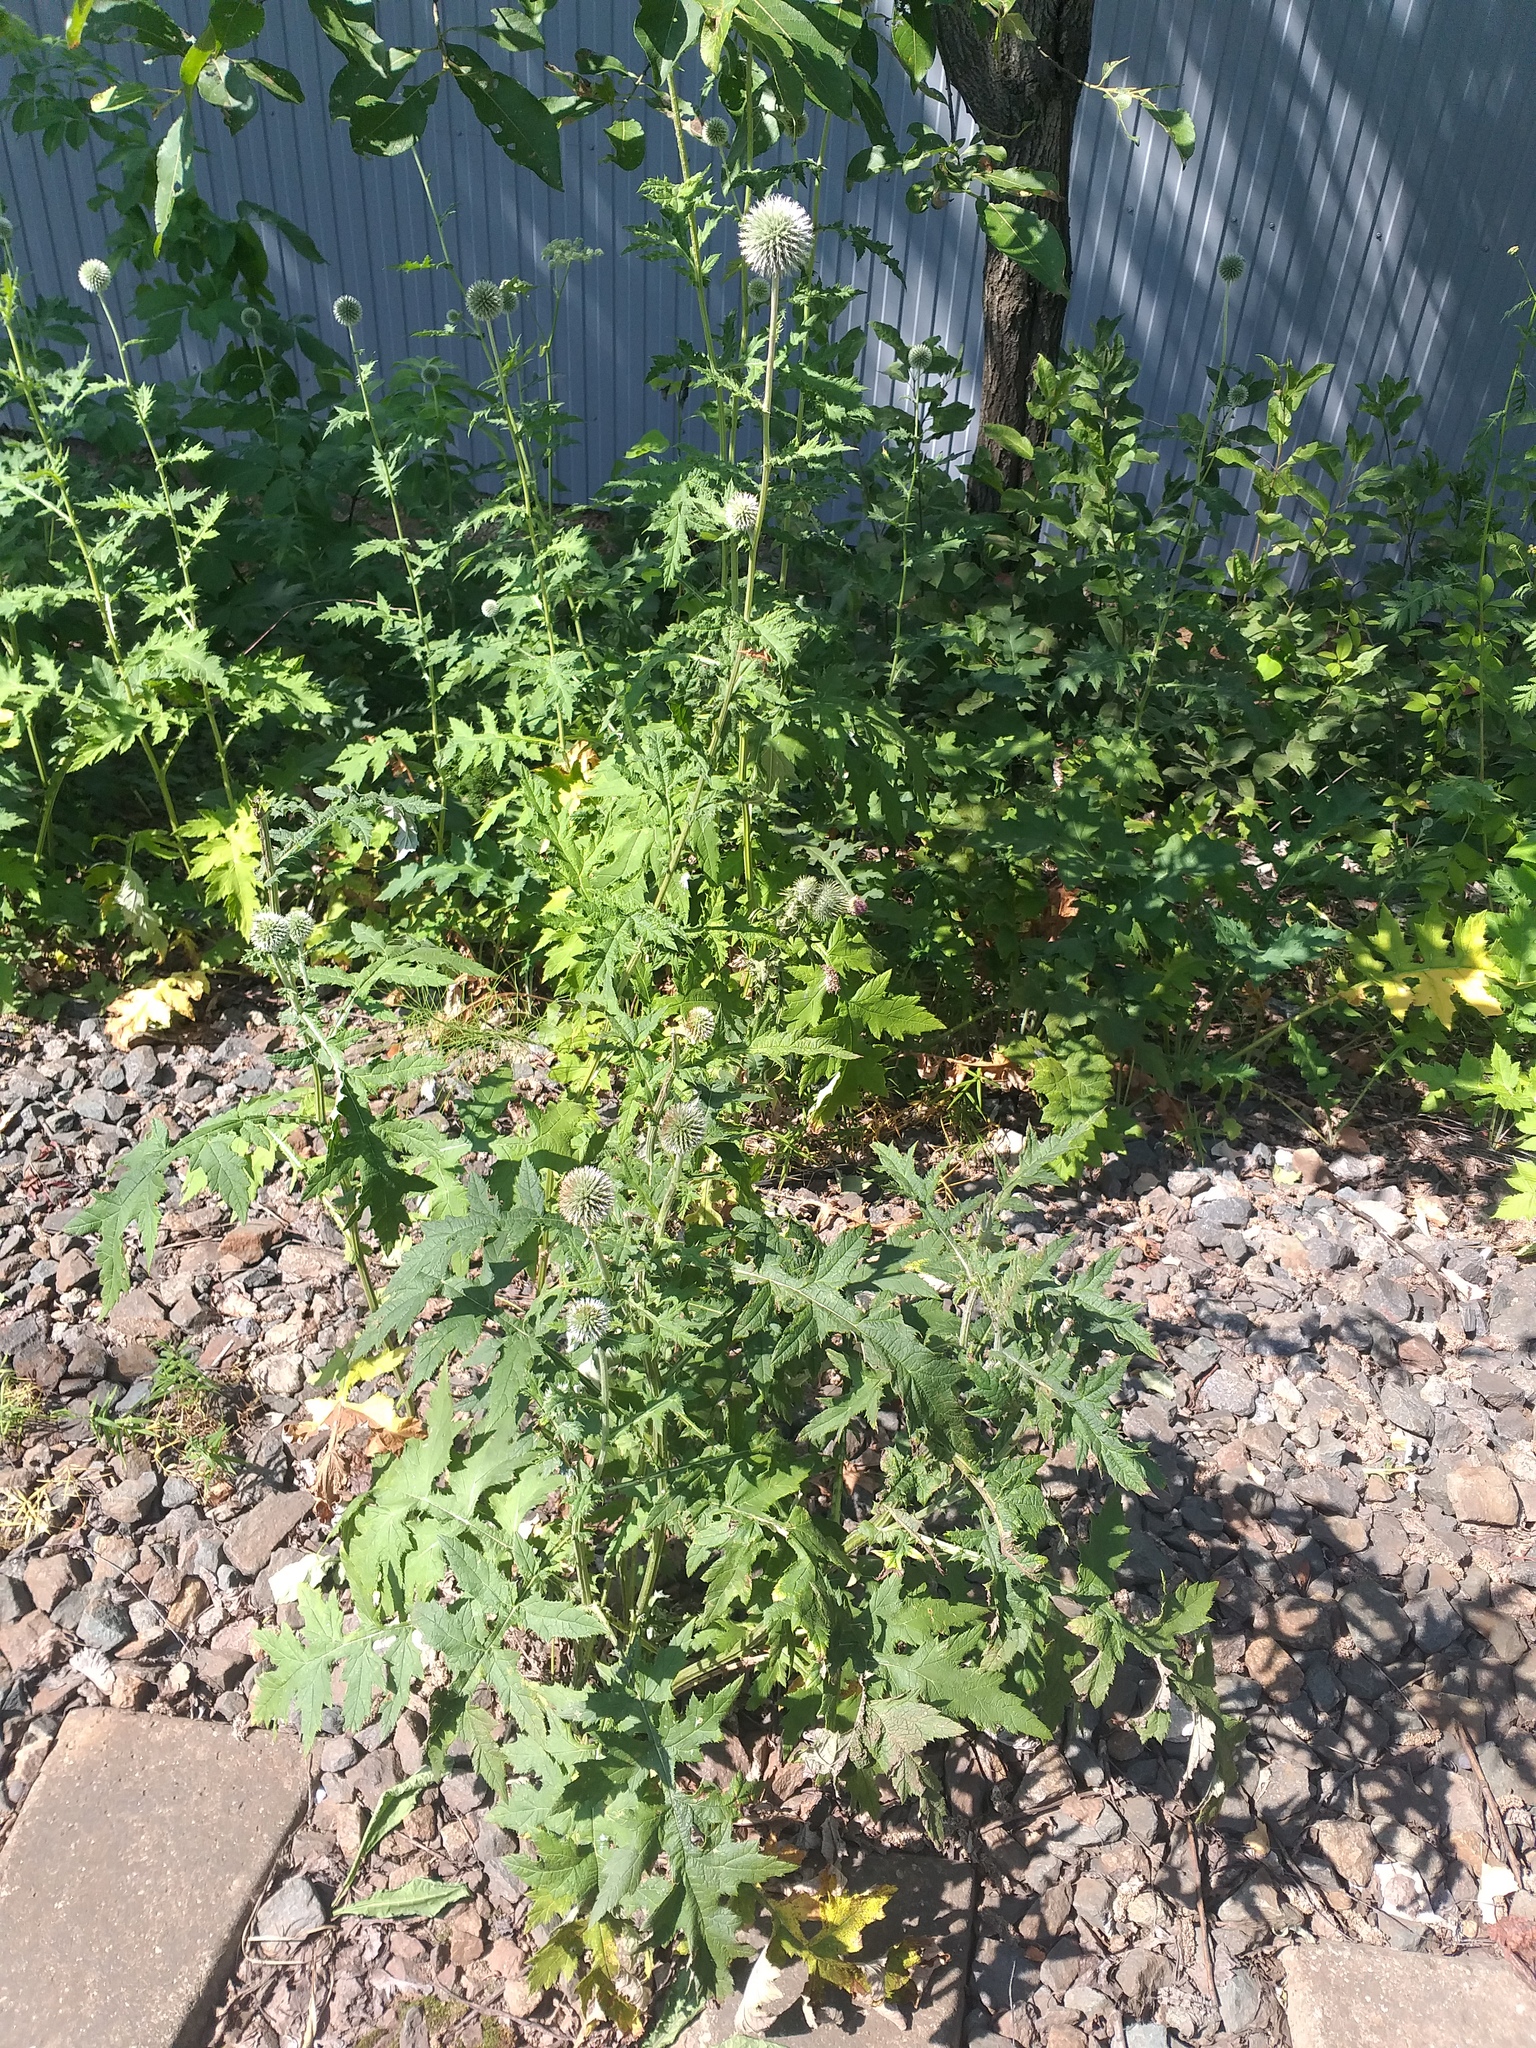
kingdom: Plantae
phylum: Tracheophyta
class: Magnoliopsida
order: Asterales
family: Asteraceae
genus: Echinops
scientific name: Echinops exaltatus
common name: Globe-thistle
